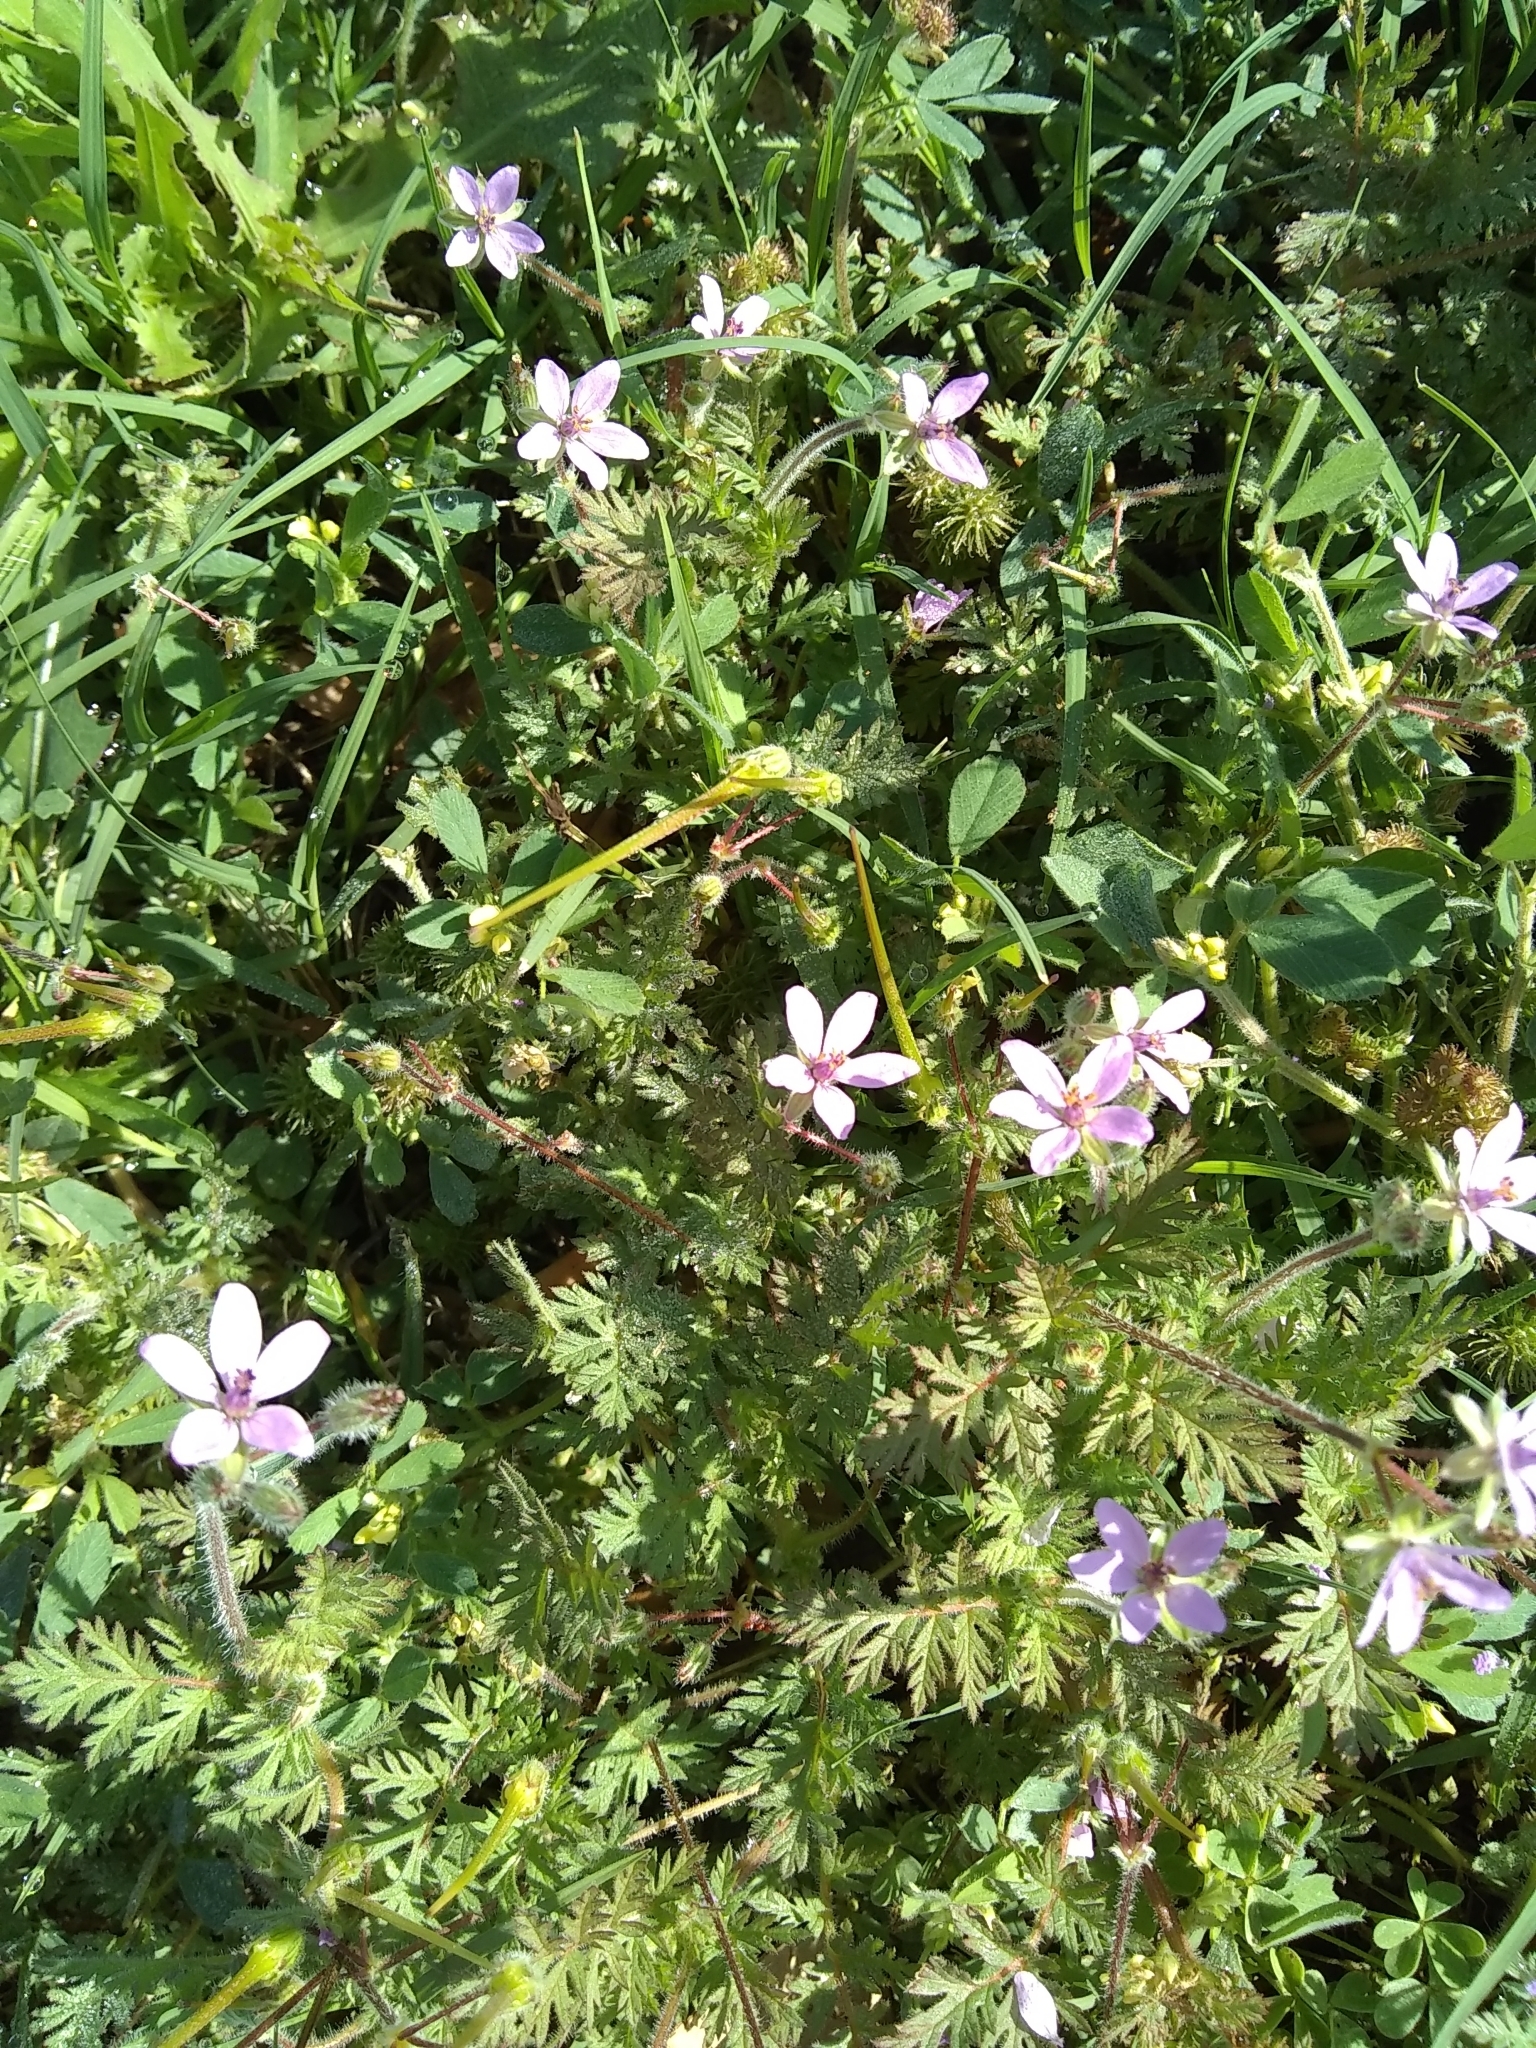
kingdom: Plantae
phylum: Tracheophyta
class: Magnoliopsida
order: Geraniales
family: Geraniaceae
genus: Erodium
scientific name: Erodium cicutarium
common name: Common stork's-bill
